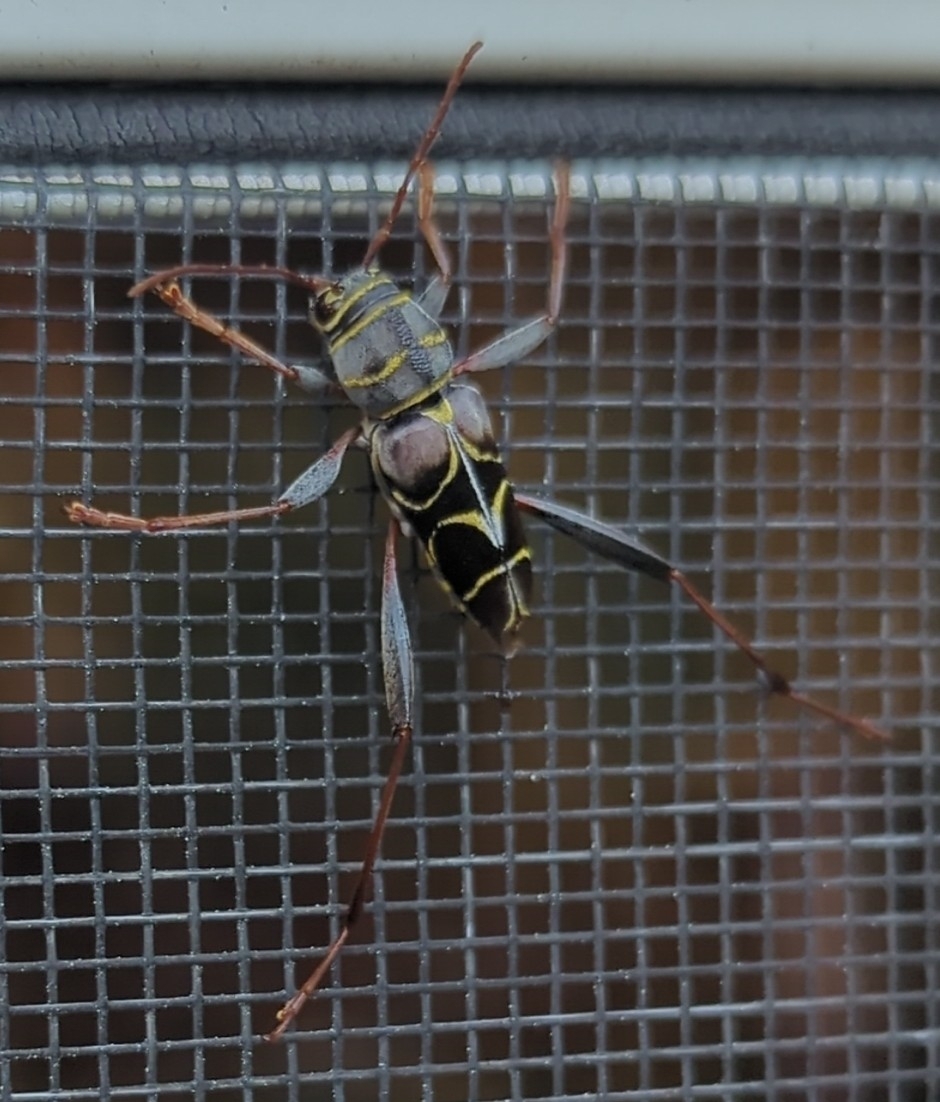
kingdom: Animalia
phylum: Arthropoda
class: Insecta
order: Coleoptera
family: Cerambycidae
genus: Neoclytus
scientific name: Neoclytus scutellaris
